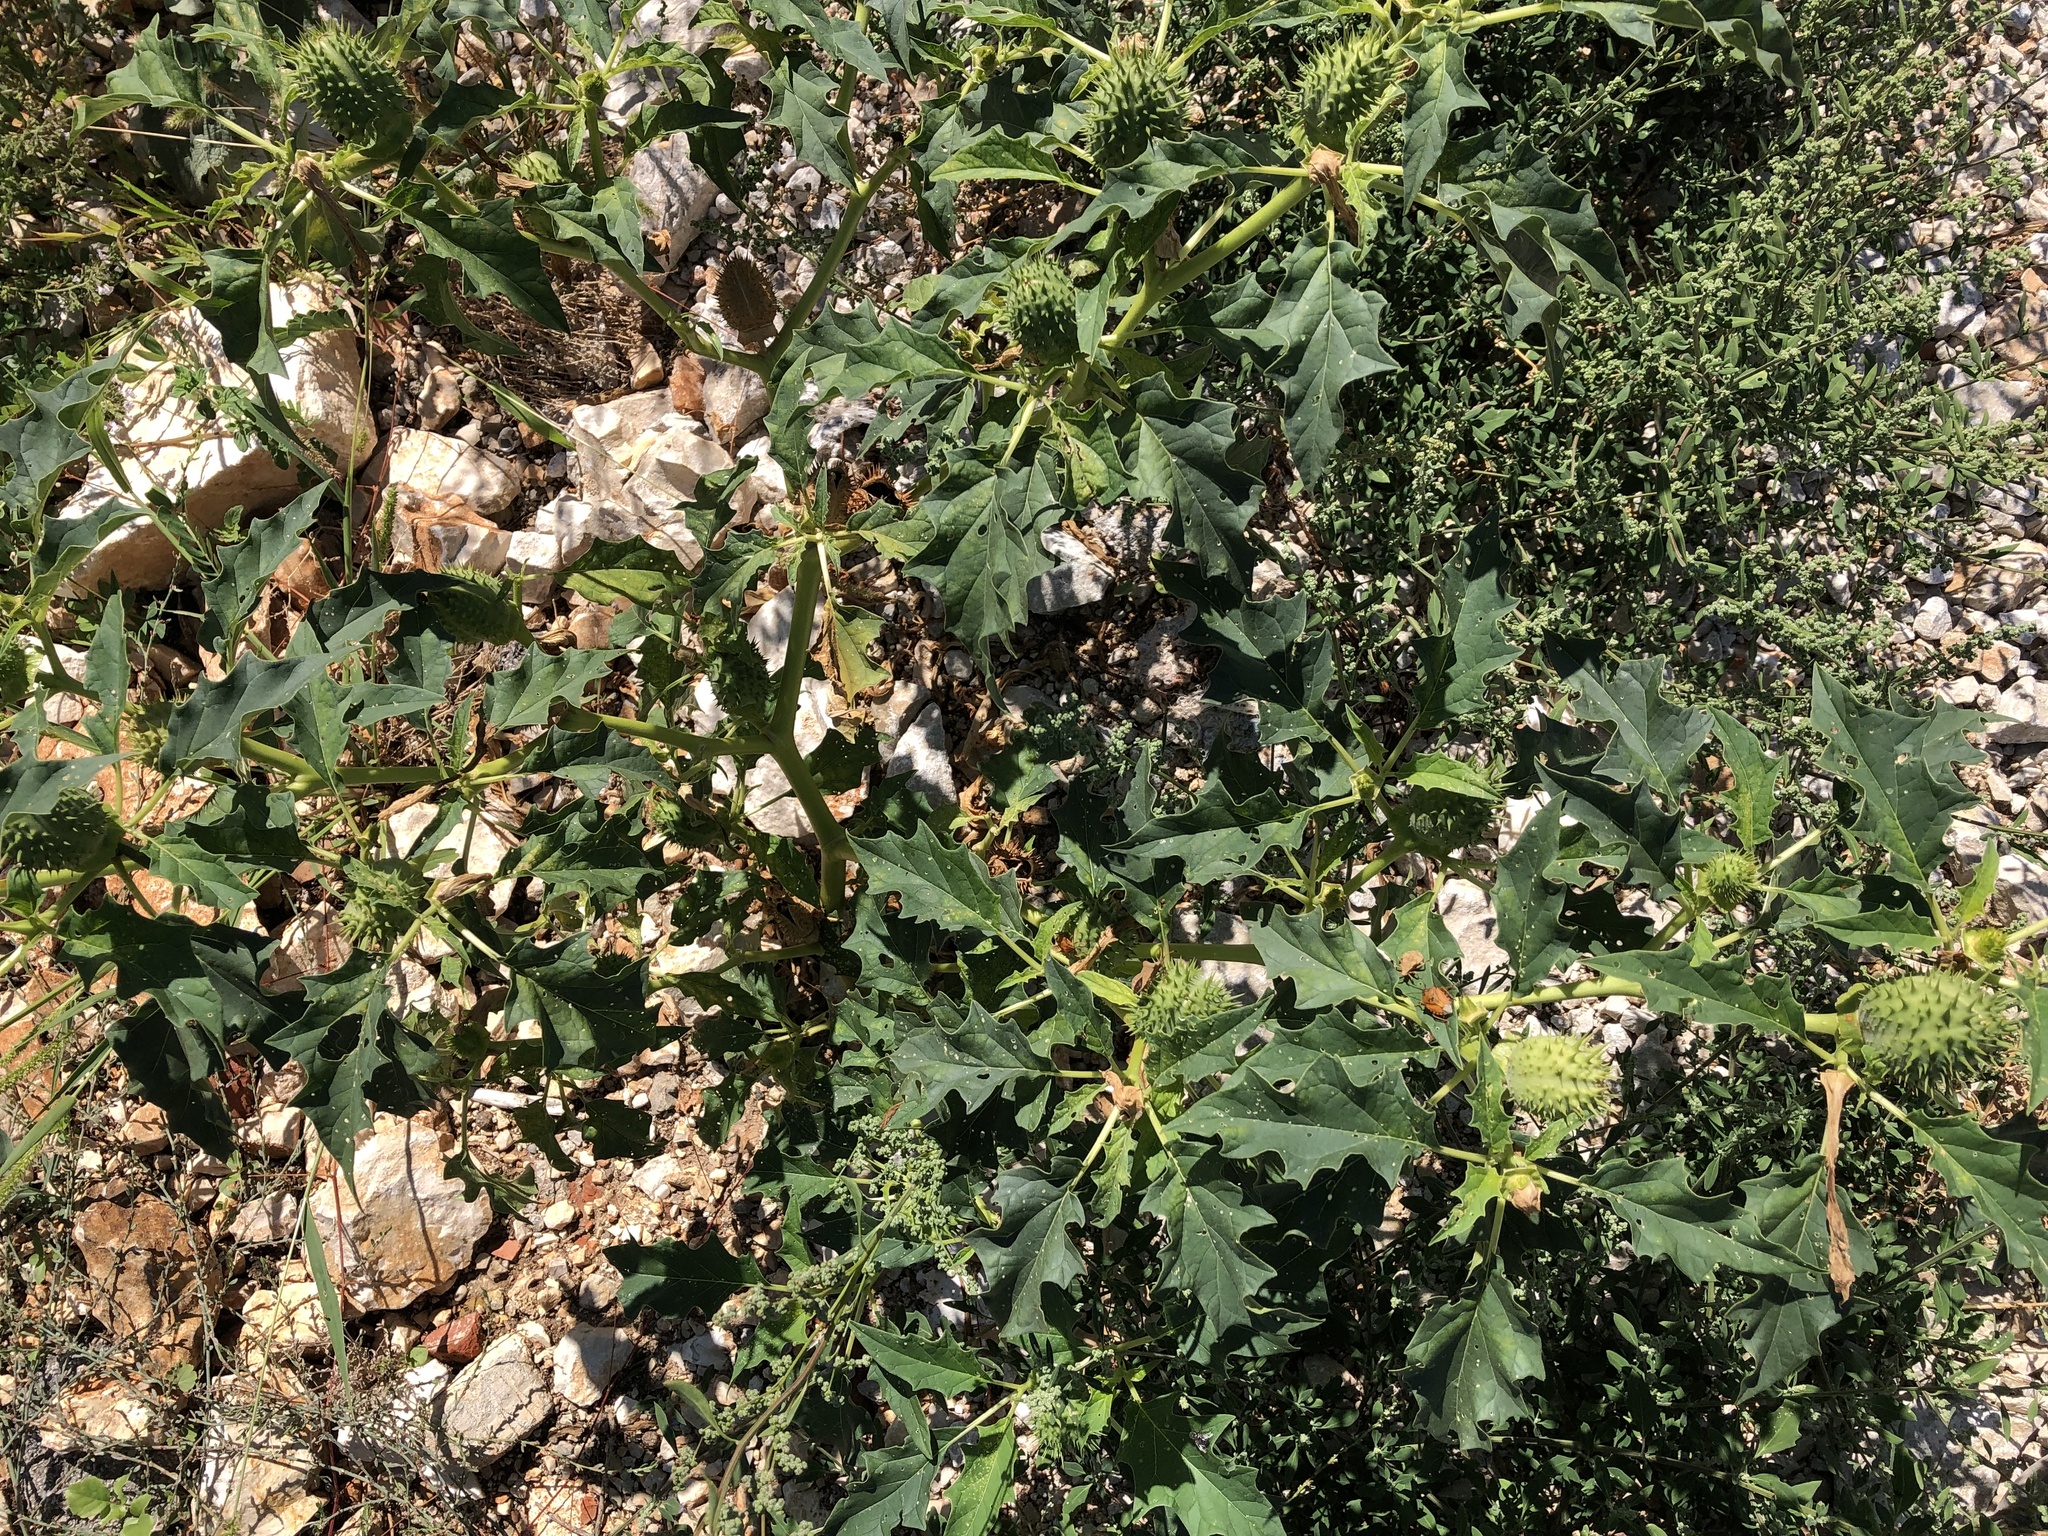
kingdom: Plantae
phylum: Tracheophyta
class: Magnoliopsida
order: Solanales
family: Solanaceae
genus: Datura
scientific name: Datura stramonium
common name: Thorn-apple
